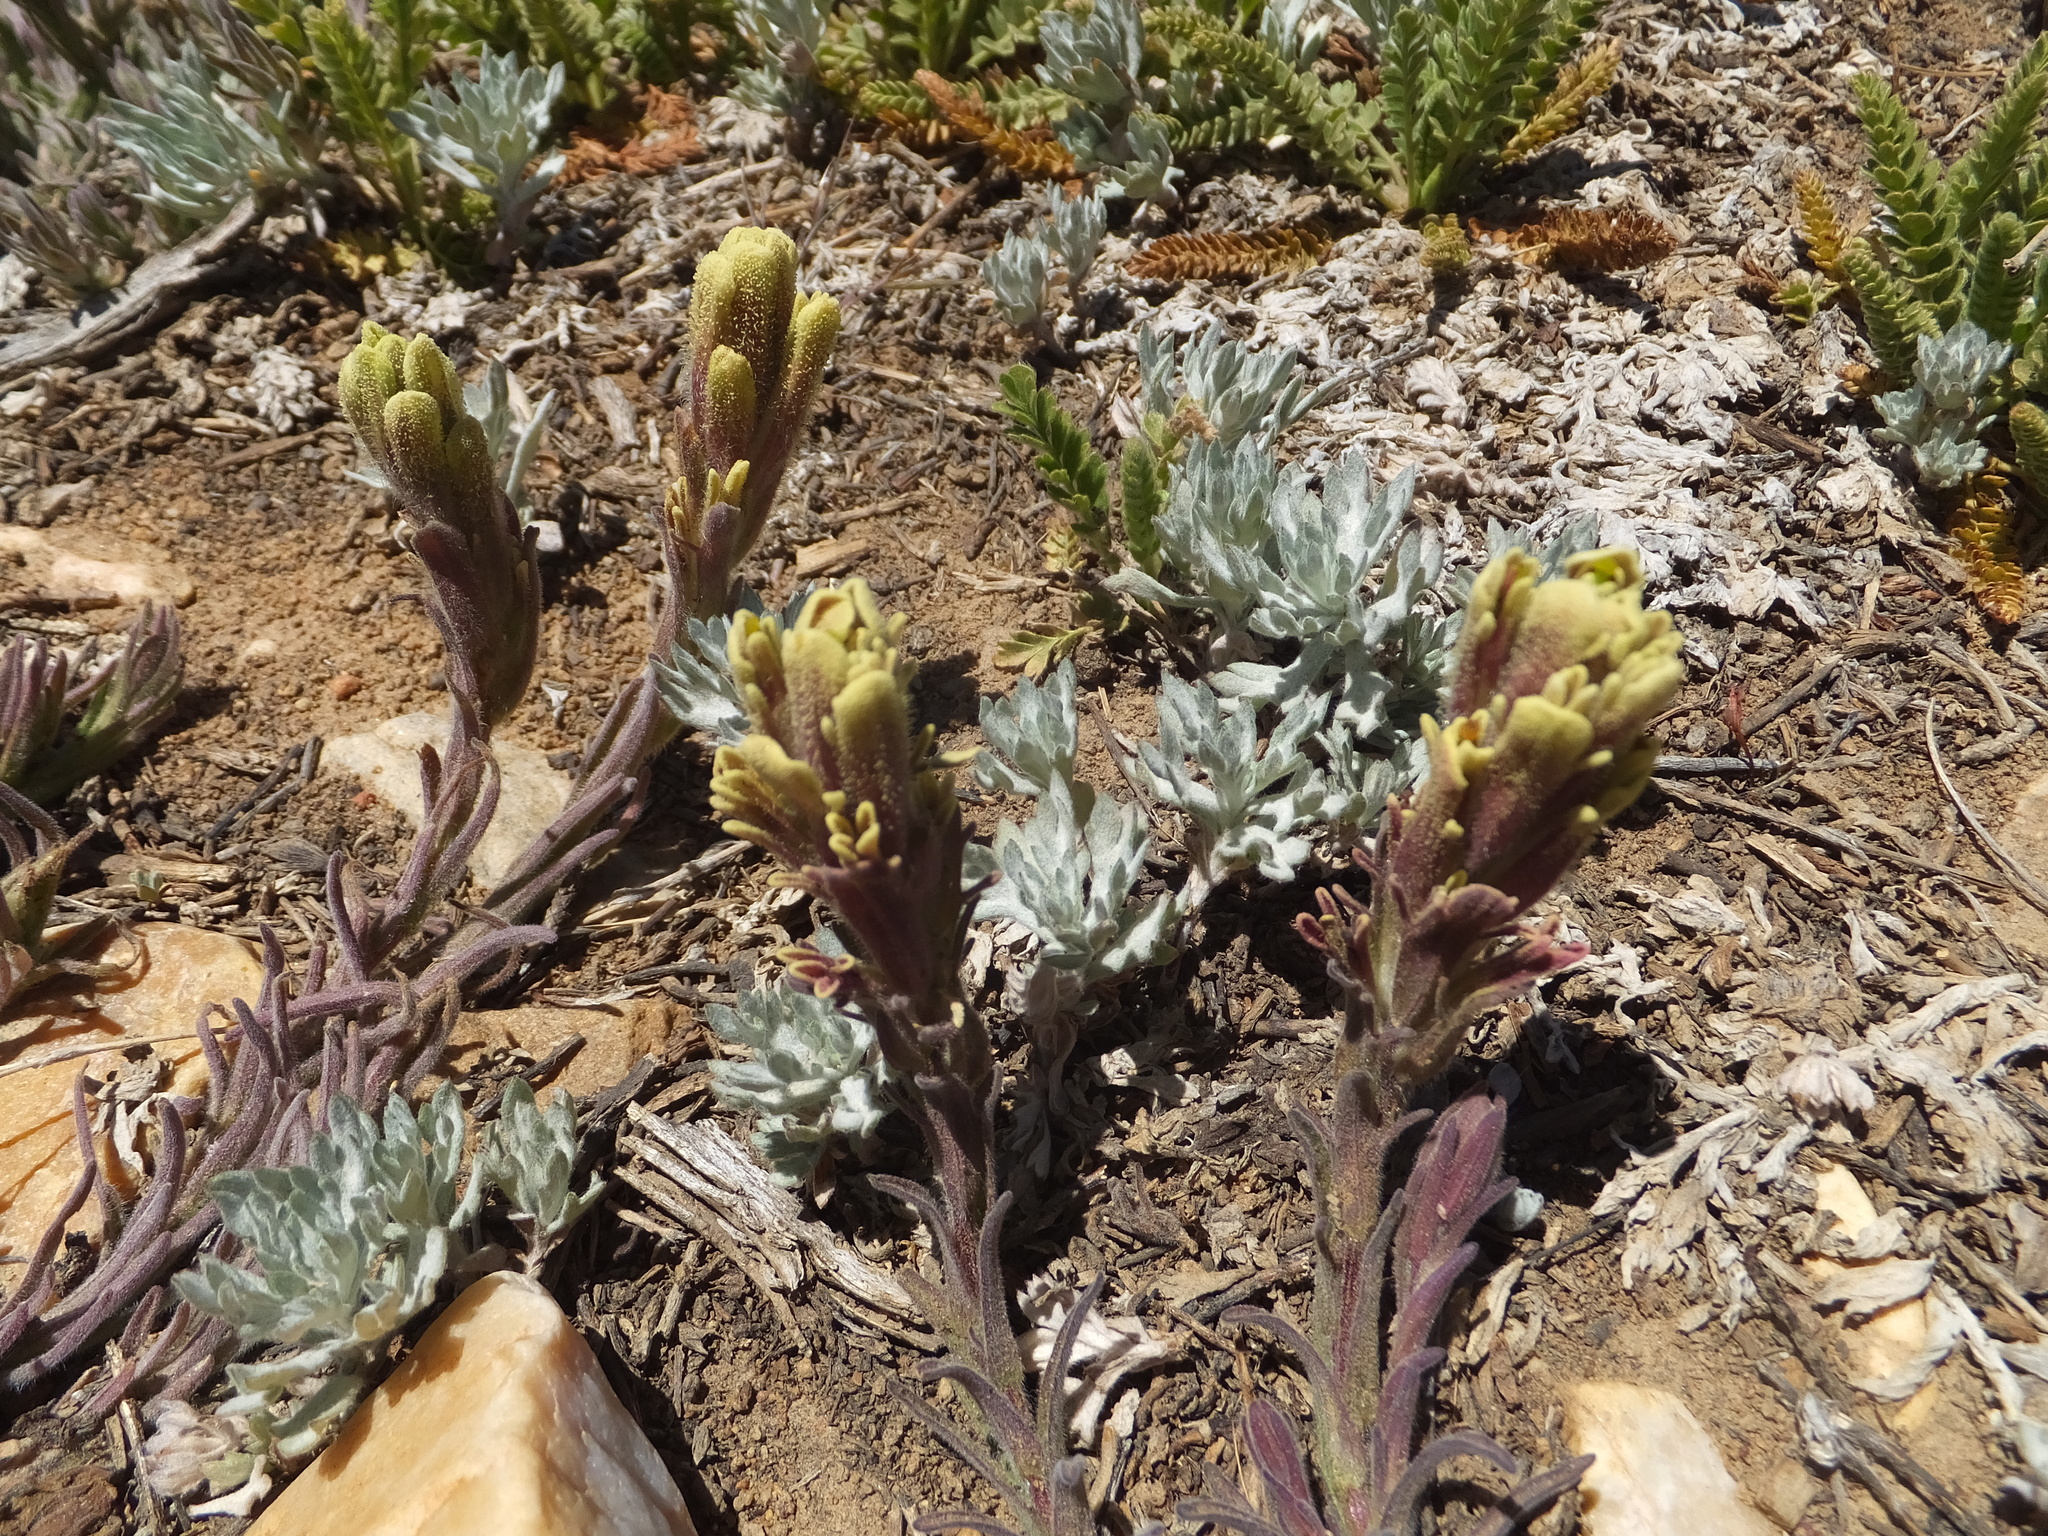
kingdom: Plantae
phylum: Tracheophyta
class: Magnoliopsida
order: Lamiales
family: Orobanchaceae
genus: Castilleja
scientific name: Castilleja cinerea
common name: Ash-gray indian paintbrush
